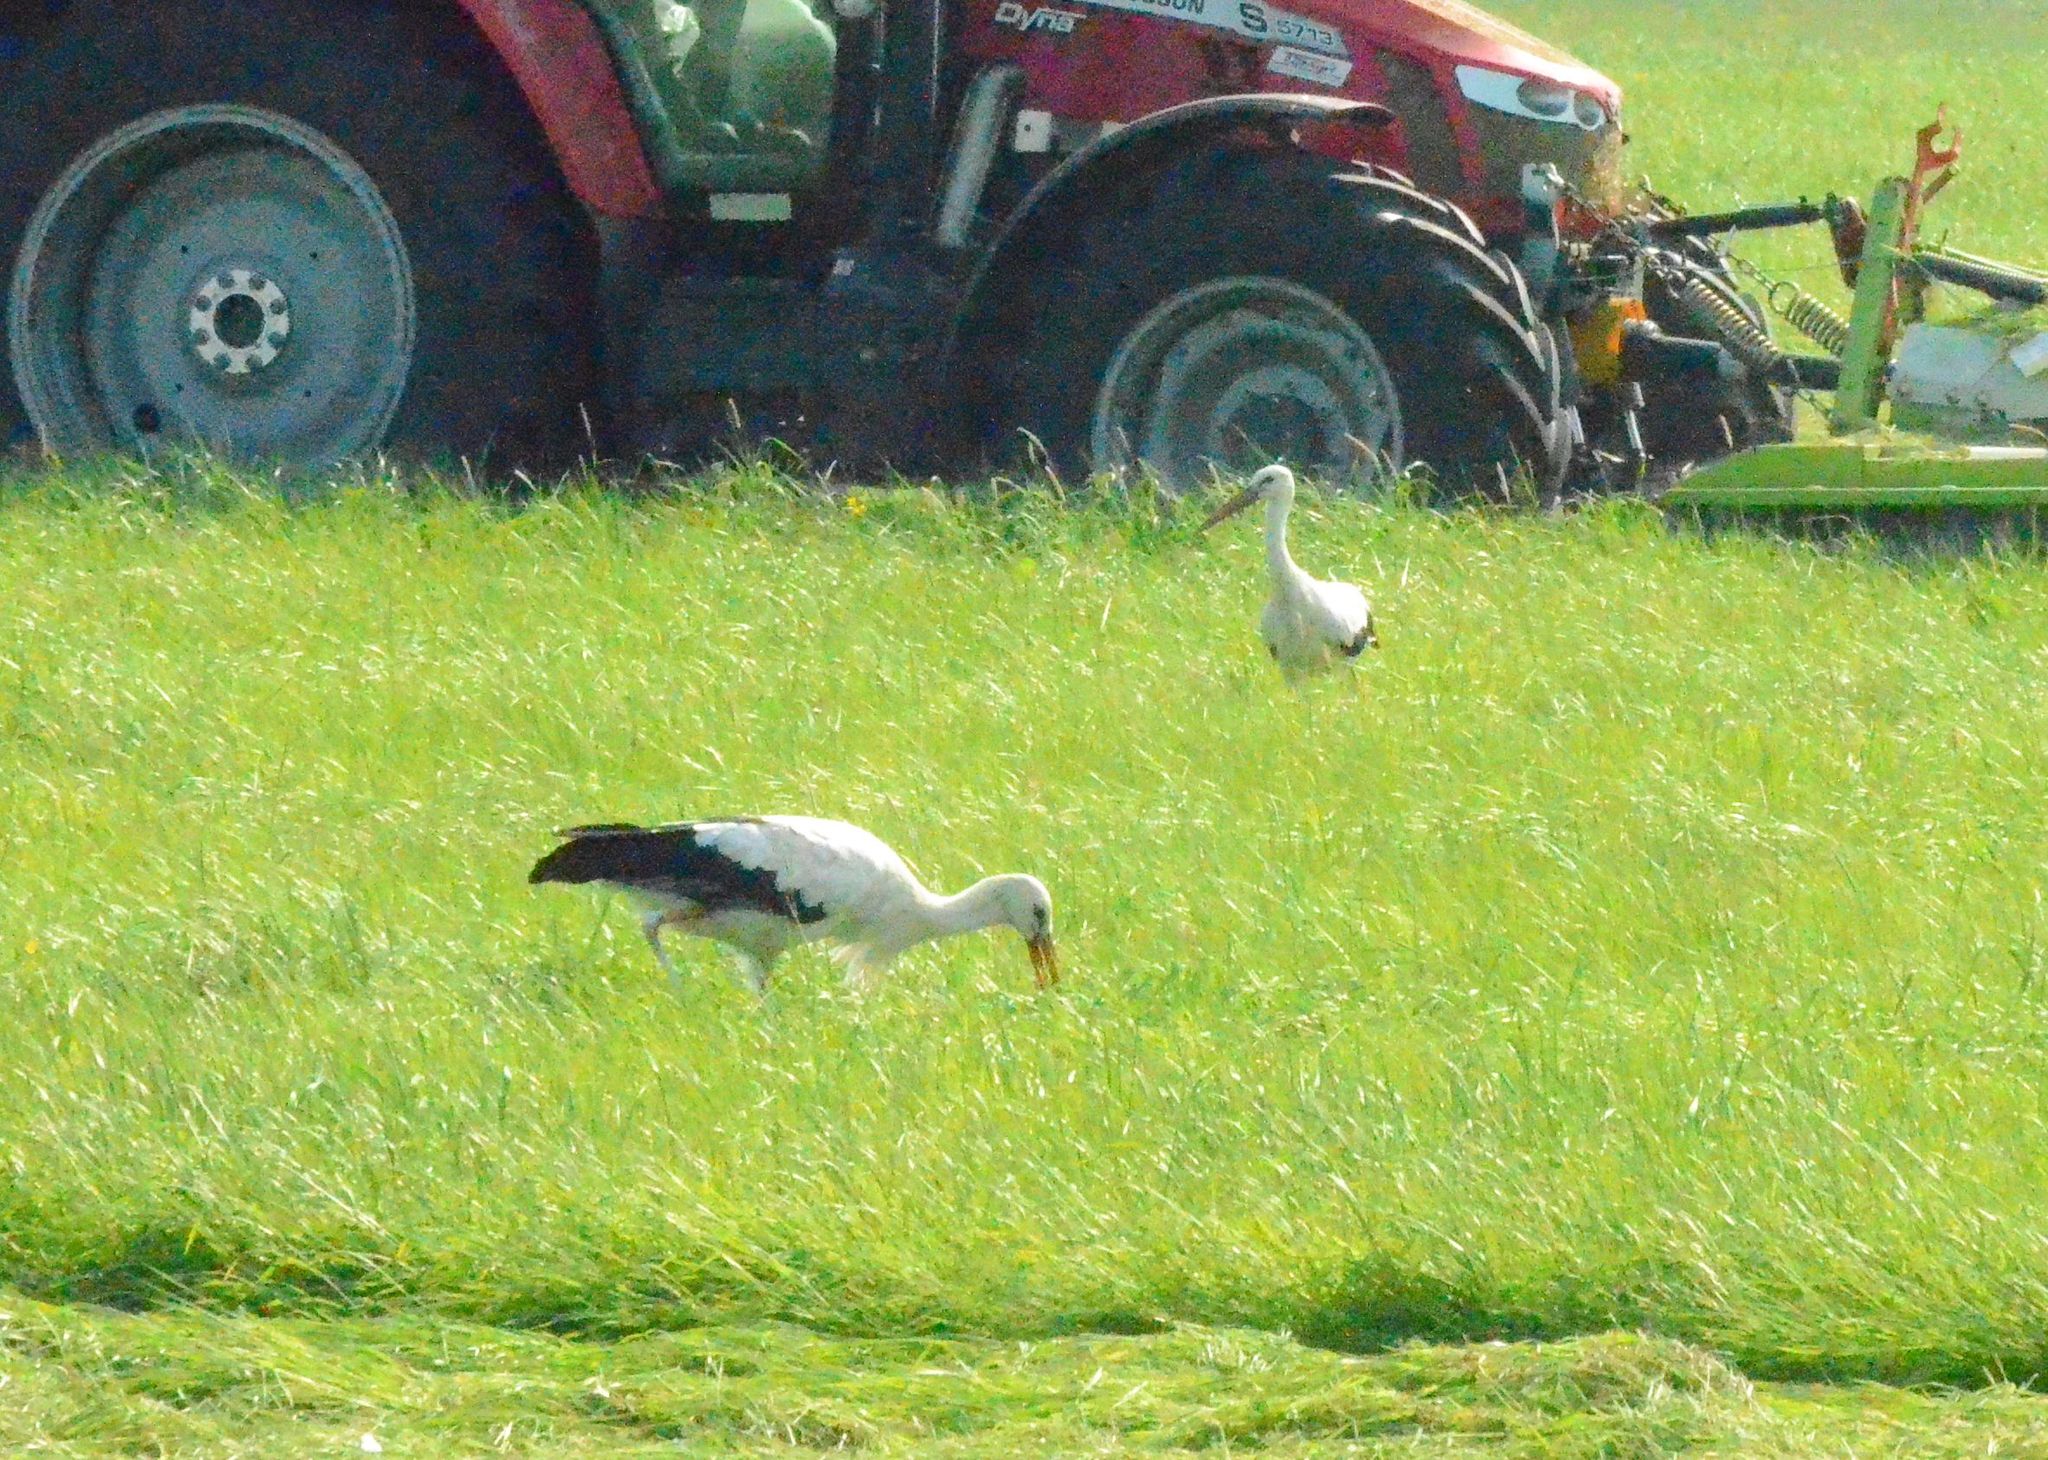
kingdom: Animalia
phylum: Chordata
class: Aves
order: Ciconiiformes
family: Ciconiidae
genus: Ciconia
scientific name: Ciconia ciconia
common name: White stork
